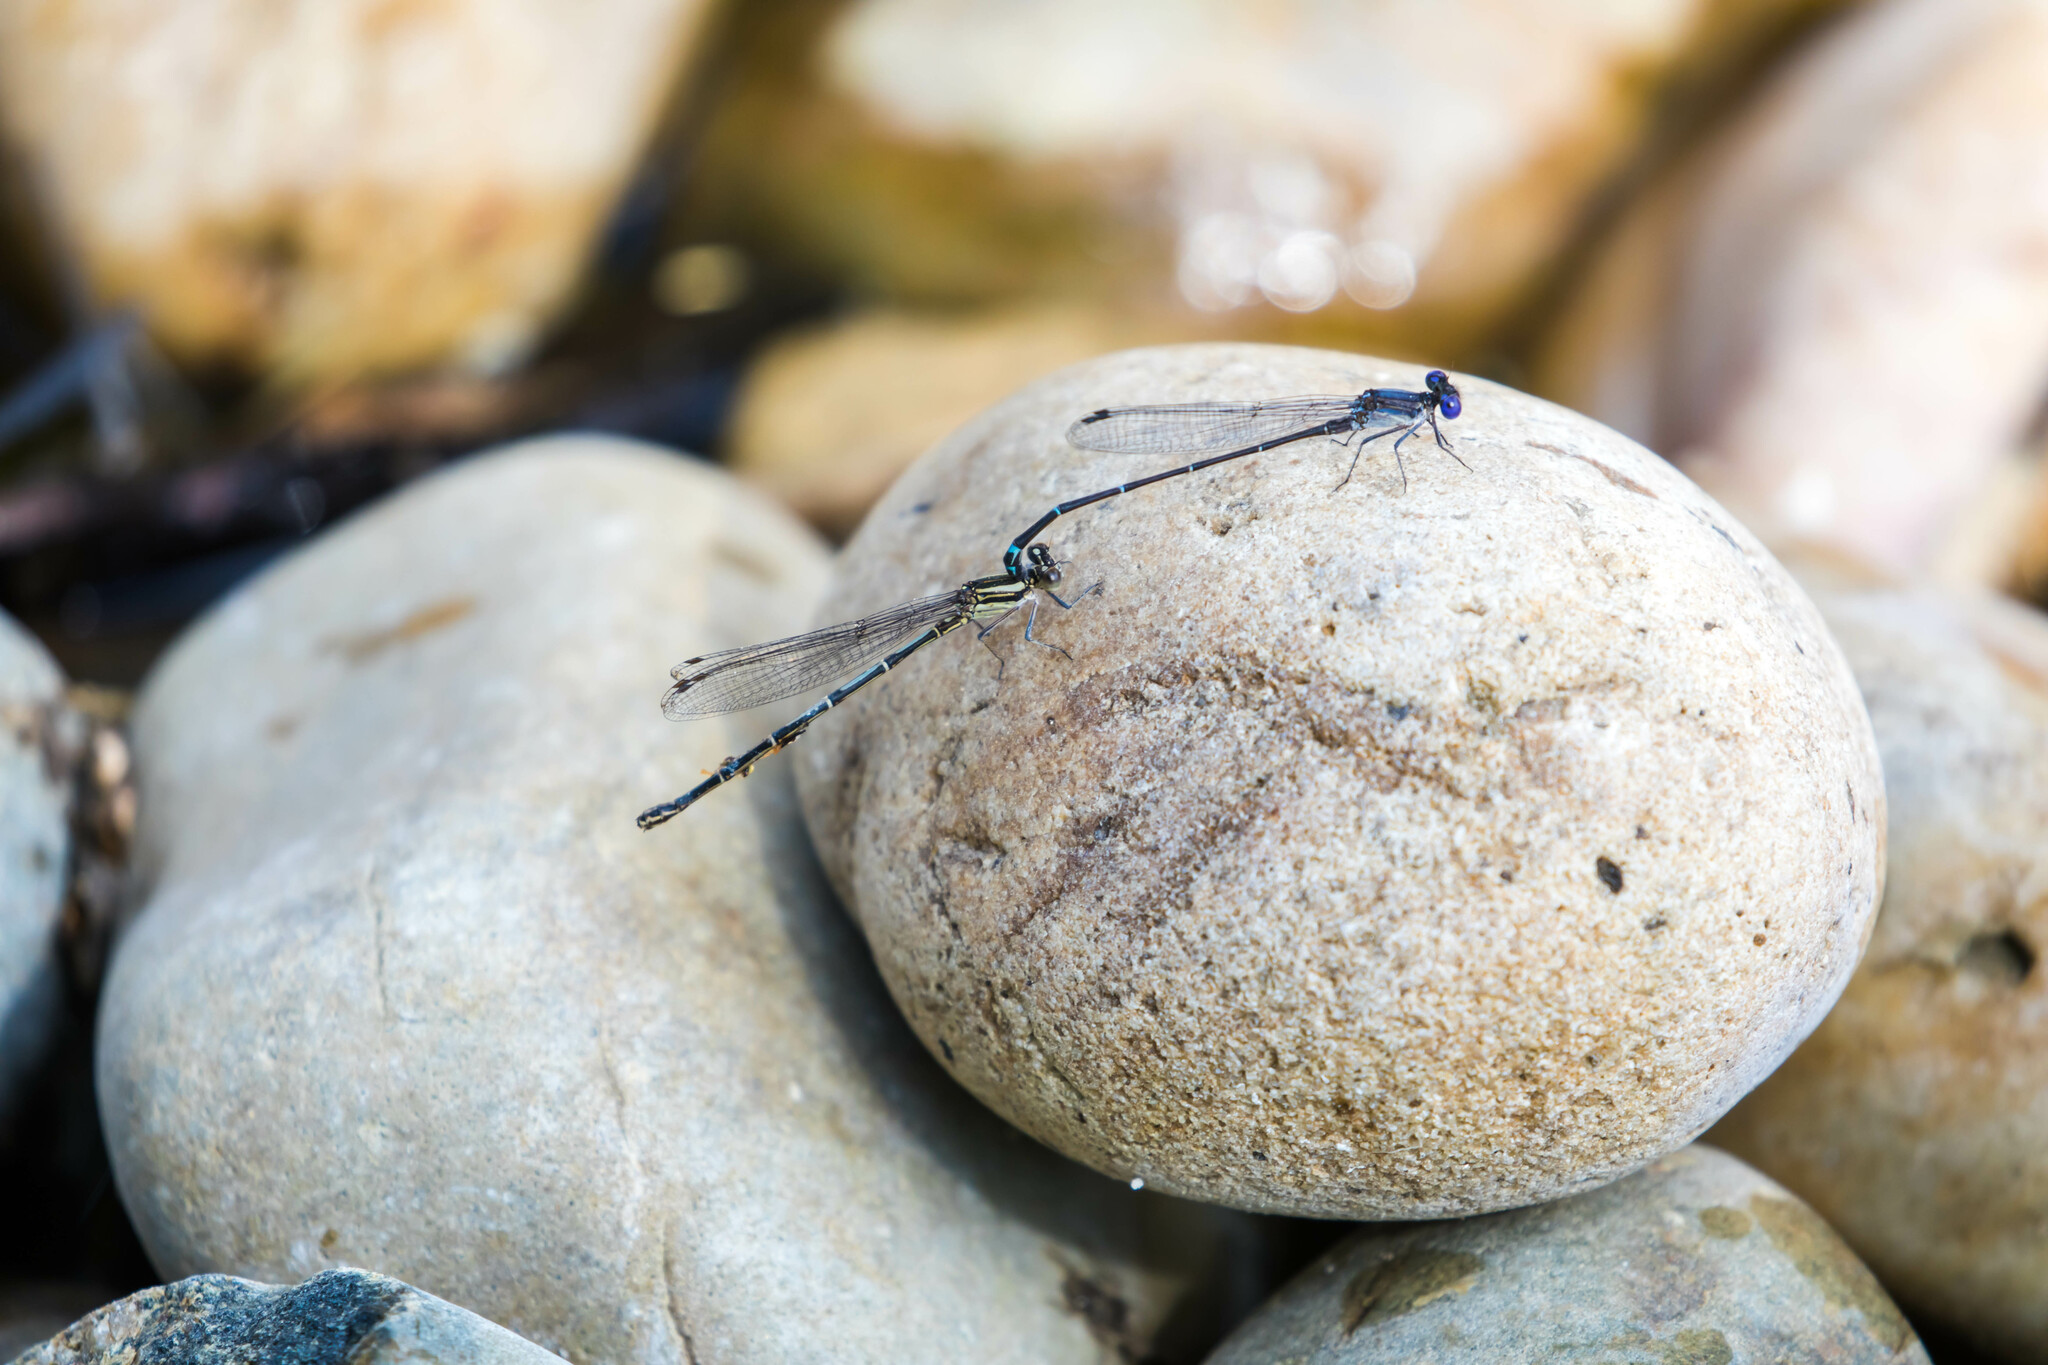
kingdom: Animalia
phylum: Arthropoda
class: Insecta
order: Odonata
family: Coenagrionidae
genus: Argia
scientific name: Argia translata
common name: Dusky dancer
